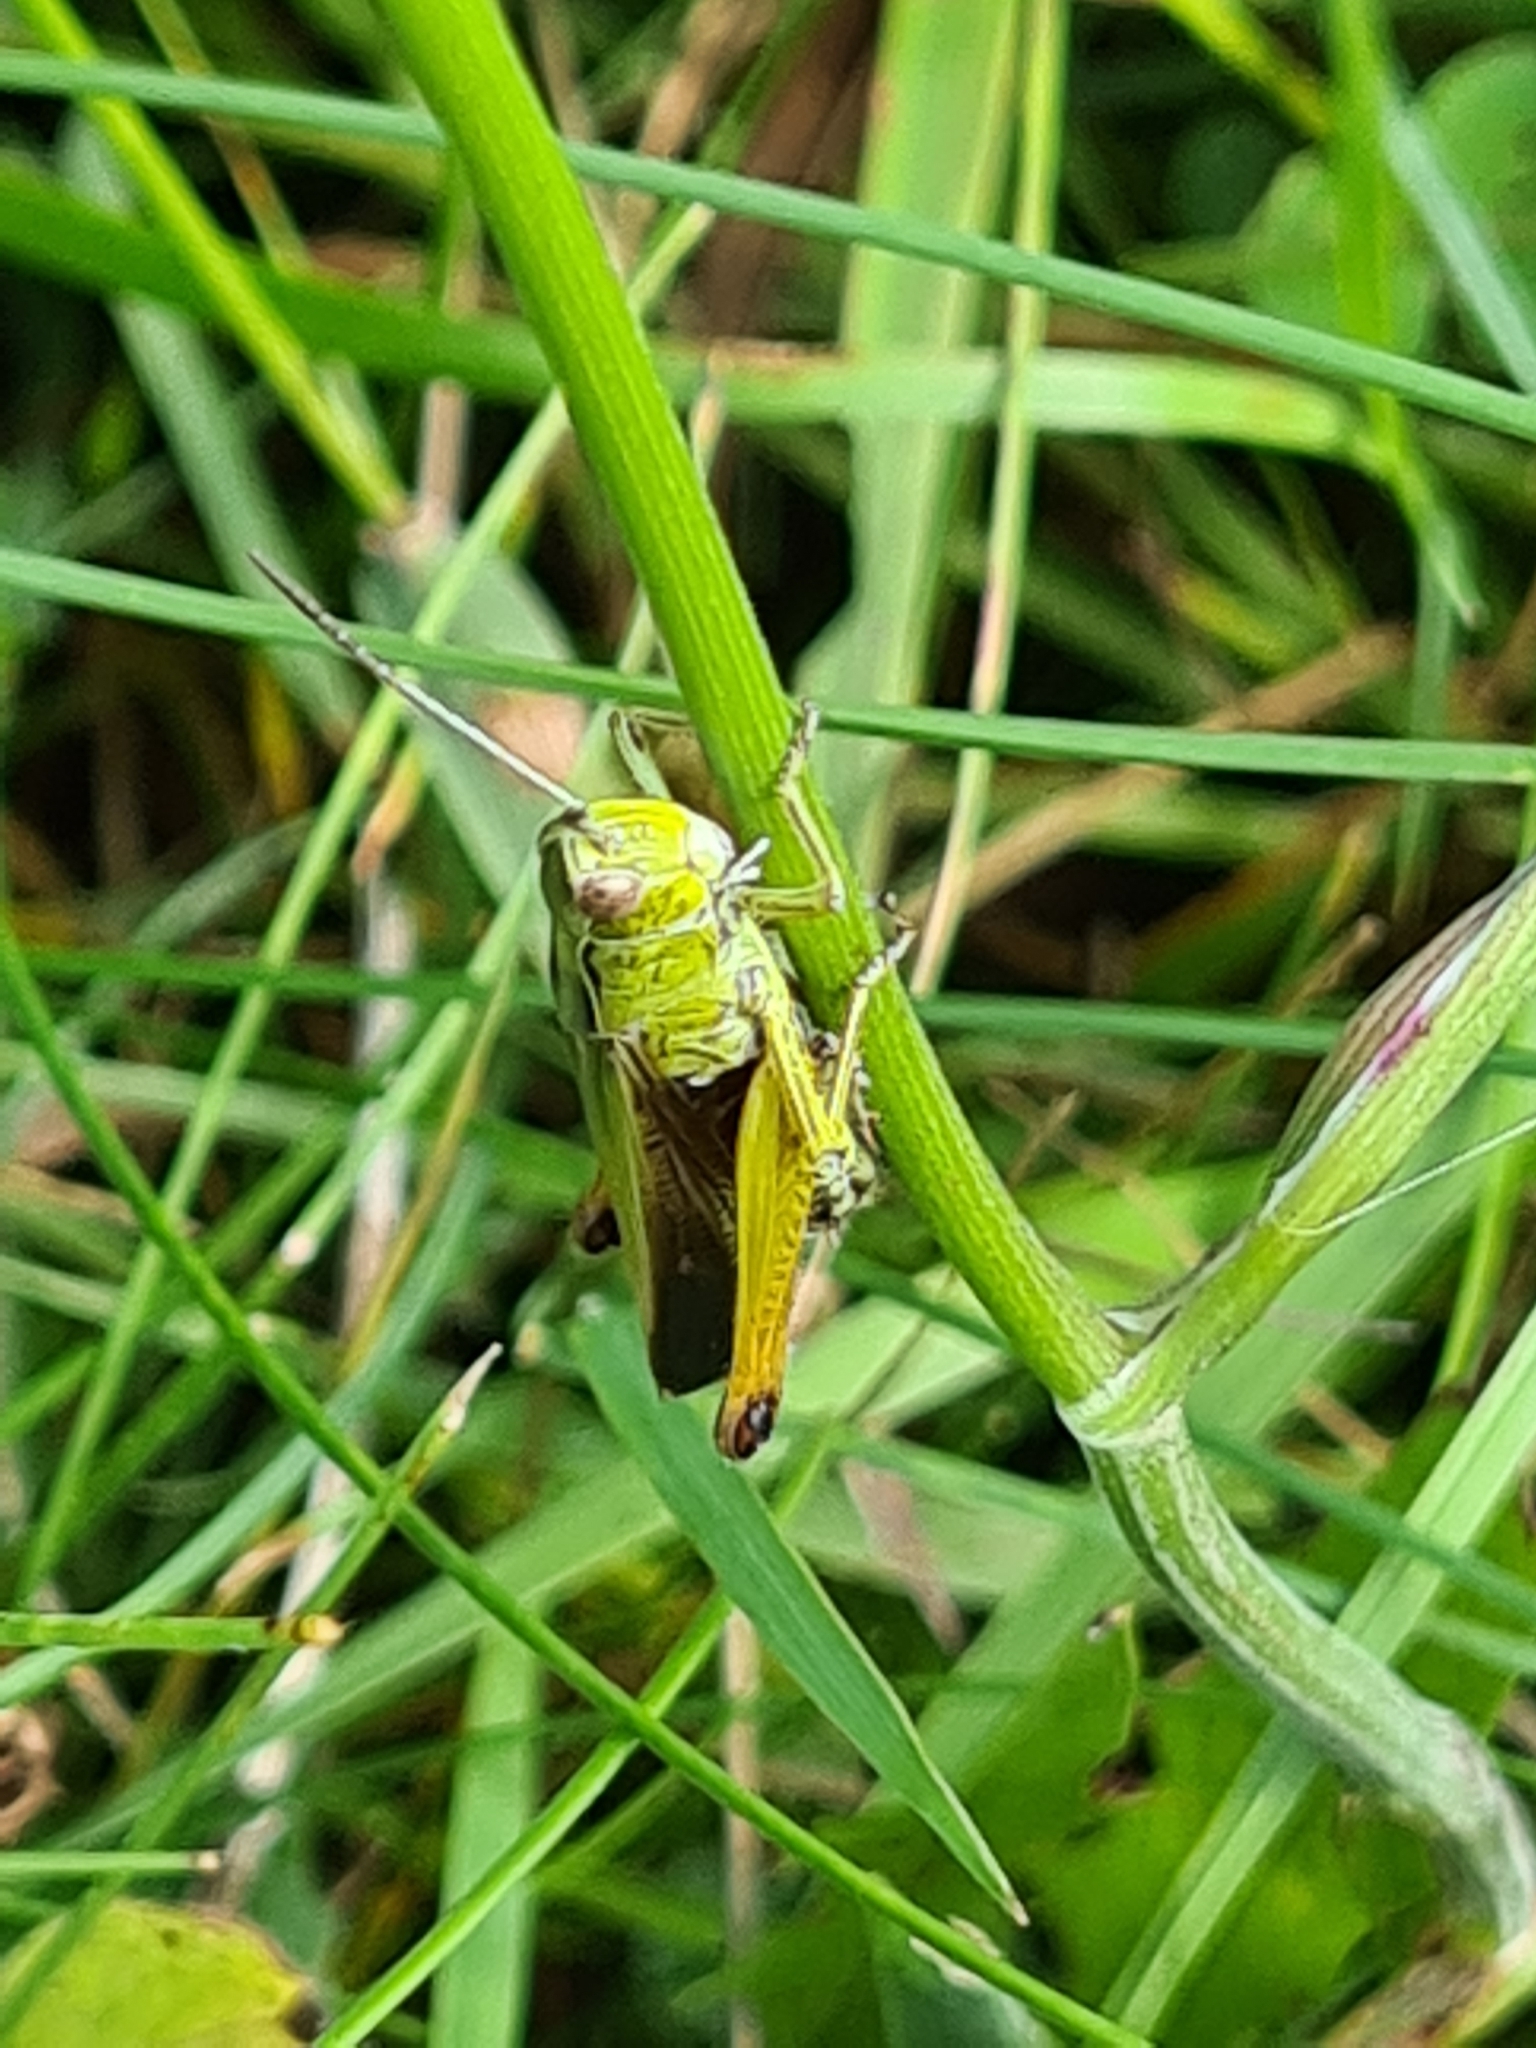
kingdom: Animalia
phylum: Arthropoda
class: Insecta
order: Orthoptera
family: Acrididae
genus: Omocestus
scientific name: Omocestus viridulus
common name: Common green grasshopper
